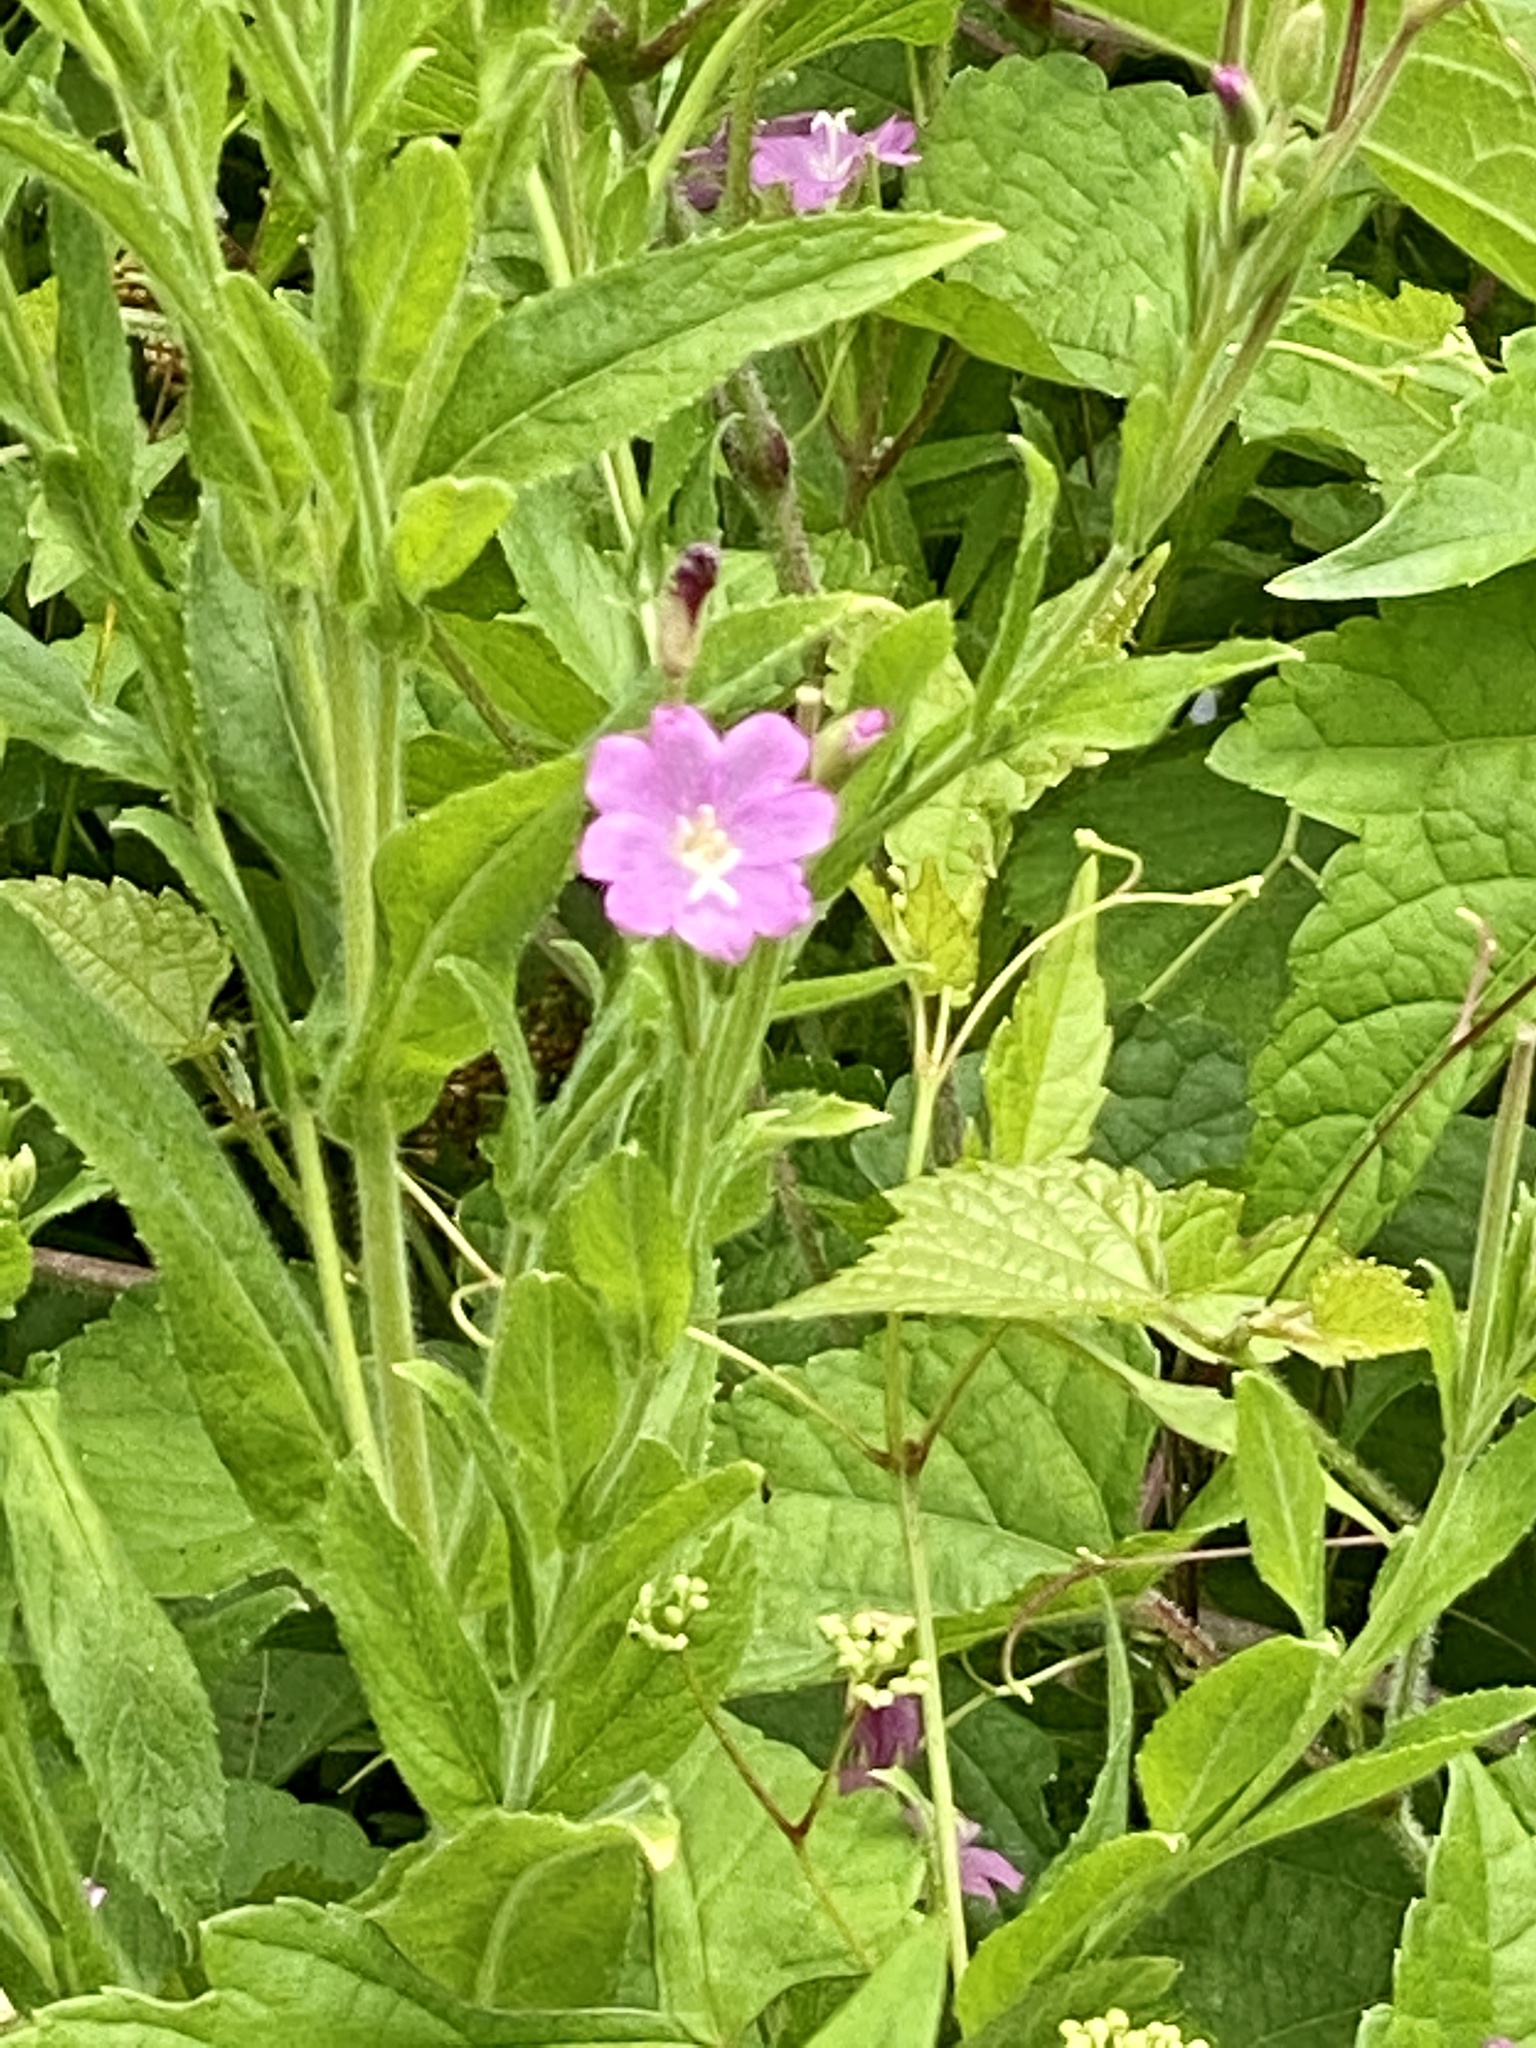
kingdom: Plantae
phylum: Tracheophyta
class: Magnoliopsida
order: Myrtales
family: Onagraceae
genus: Epilobium
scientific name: Epilobium hirsutum
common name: Great willowherb
